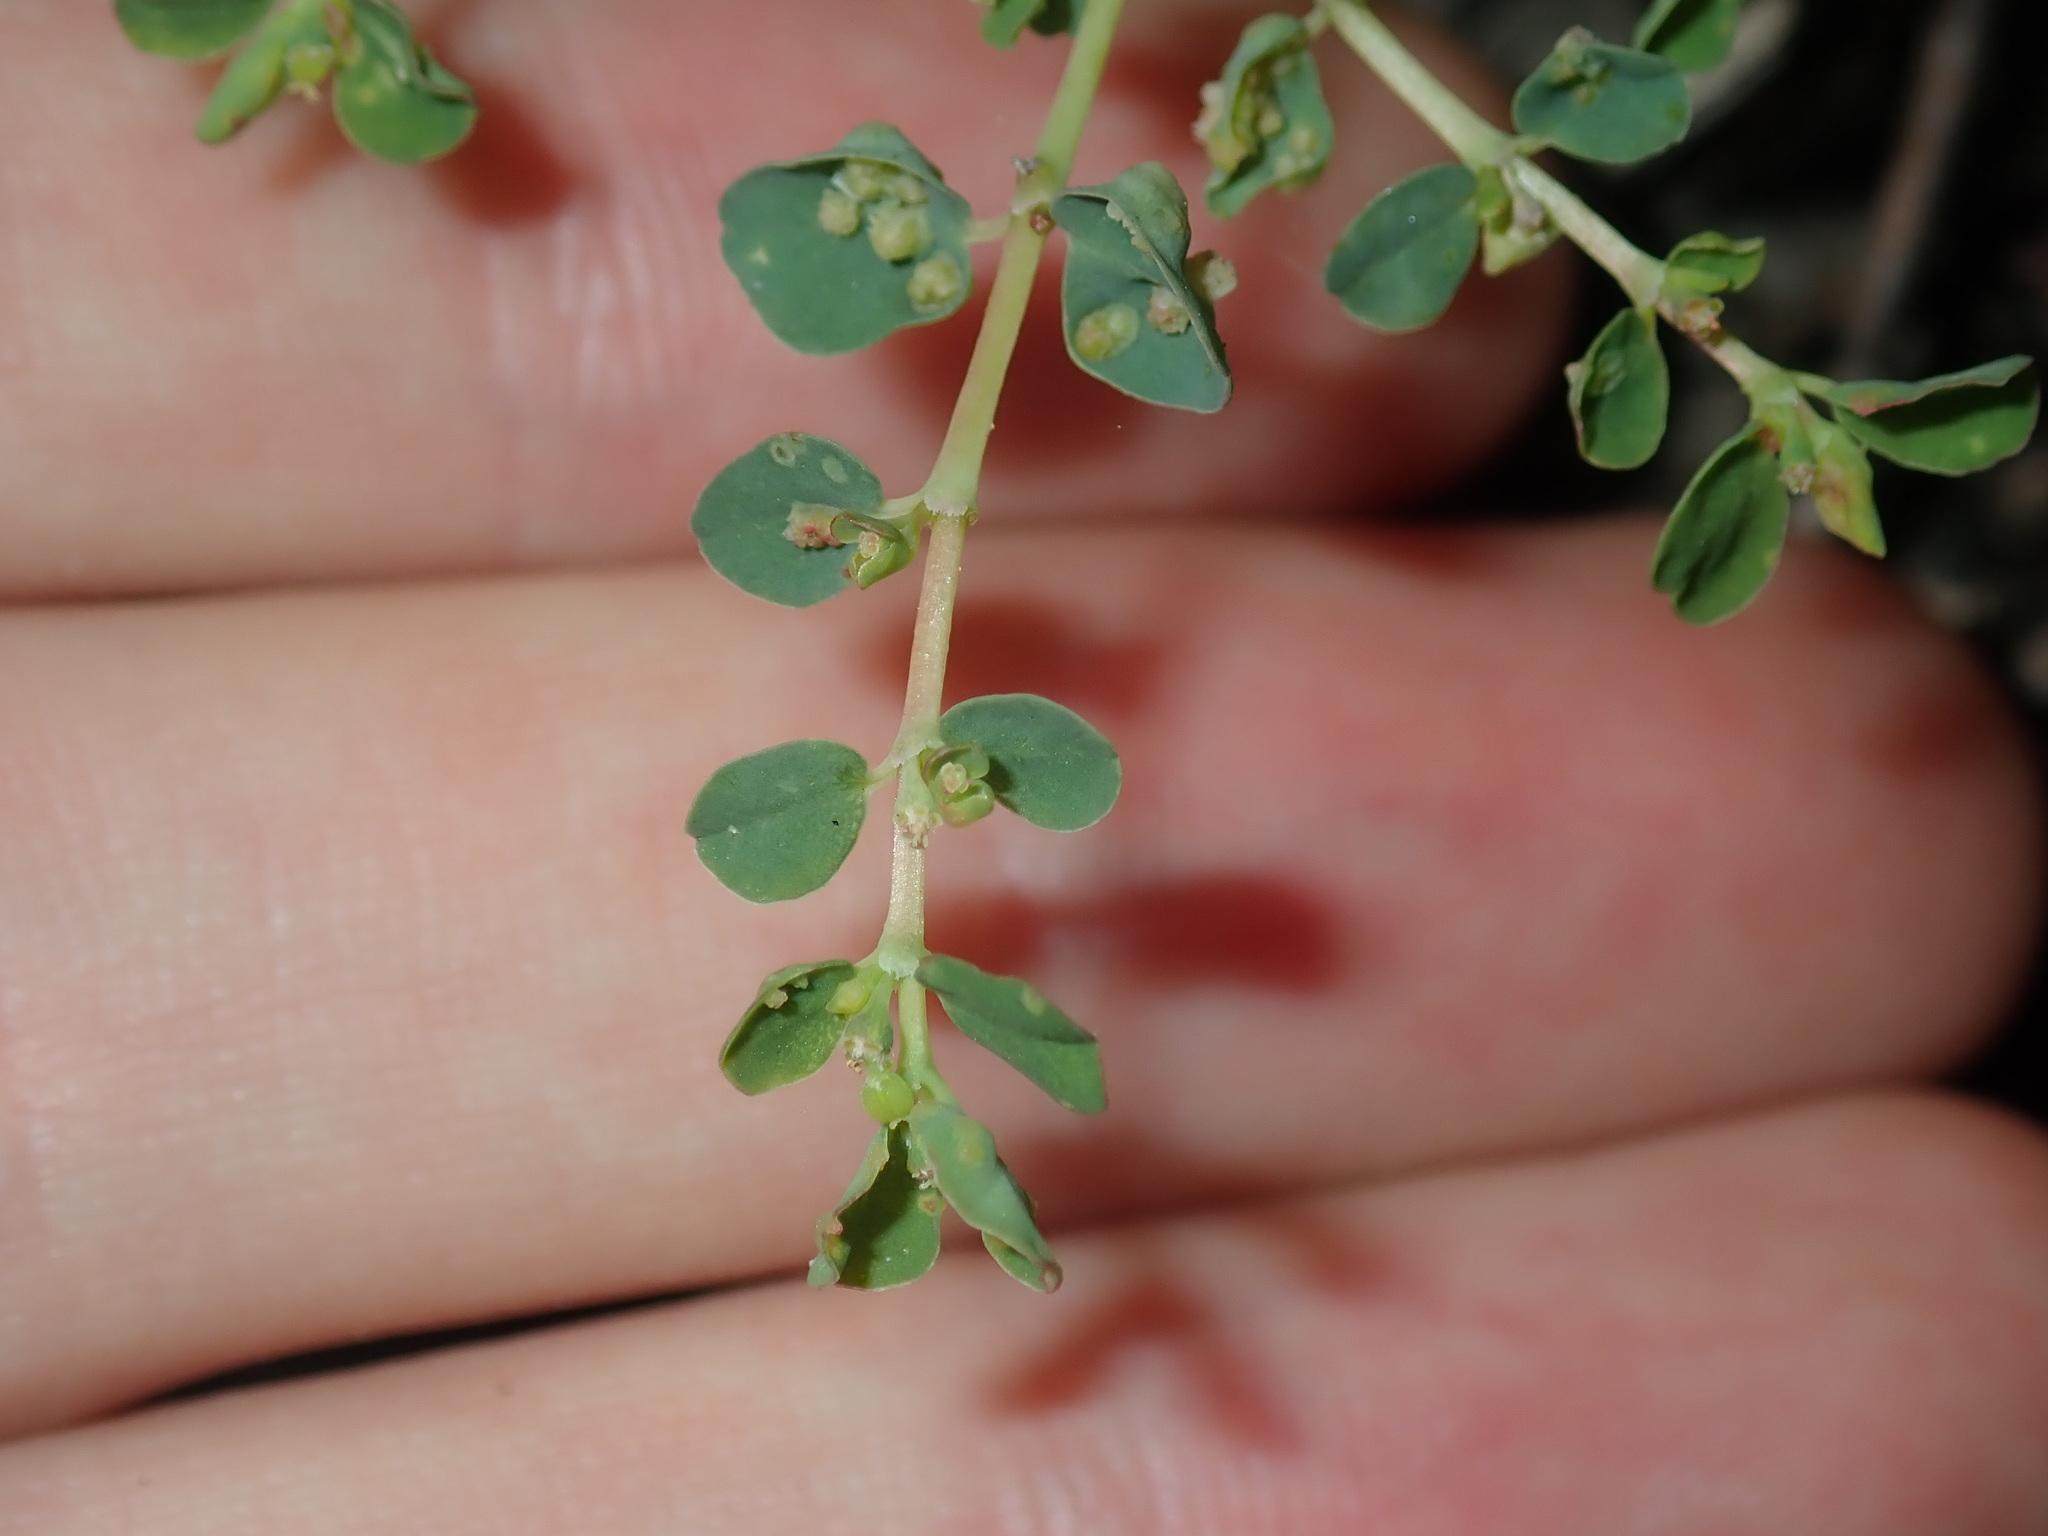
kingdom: Plantae
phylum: Tracheophyta
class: Magnoliopsida
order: Malpighiales
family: Euphorbiaceae
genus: Euphorbia
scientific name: Euphorbia serpens
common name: Matted sandmat
